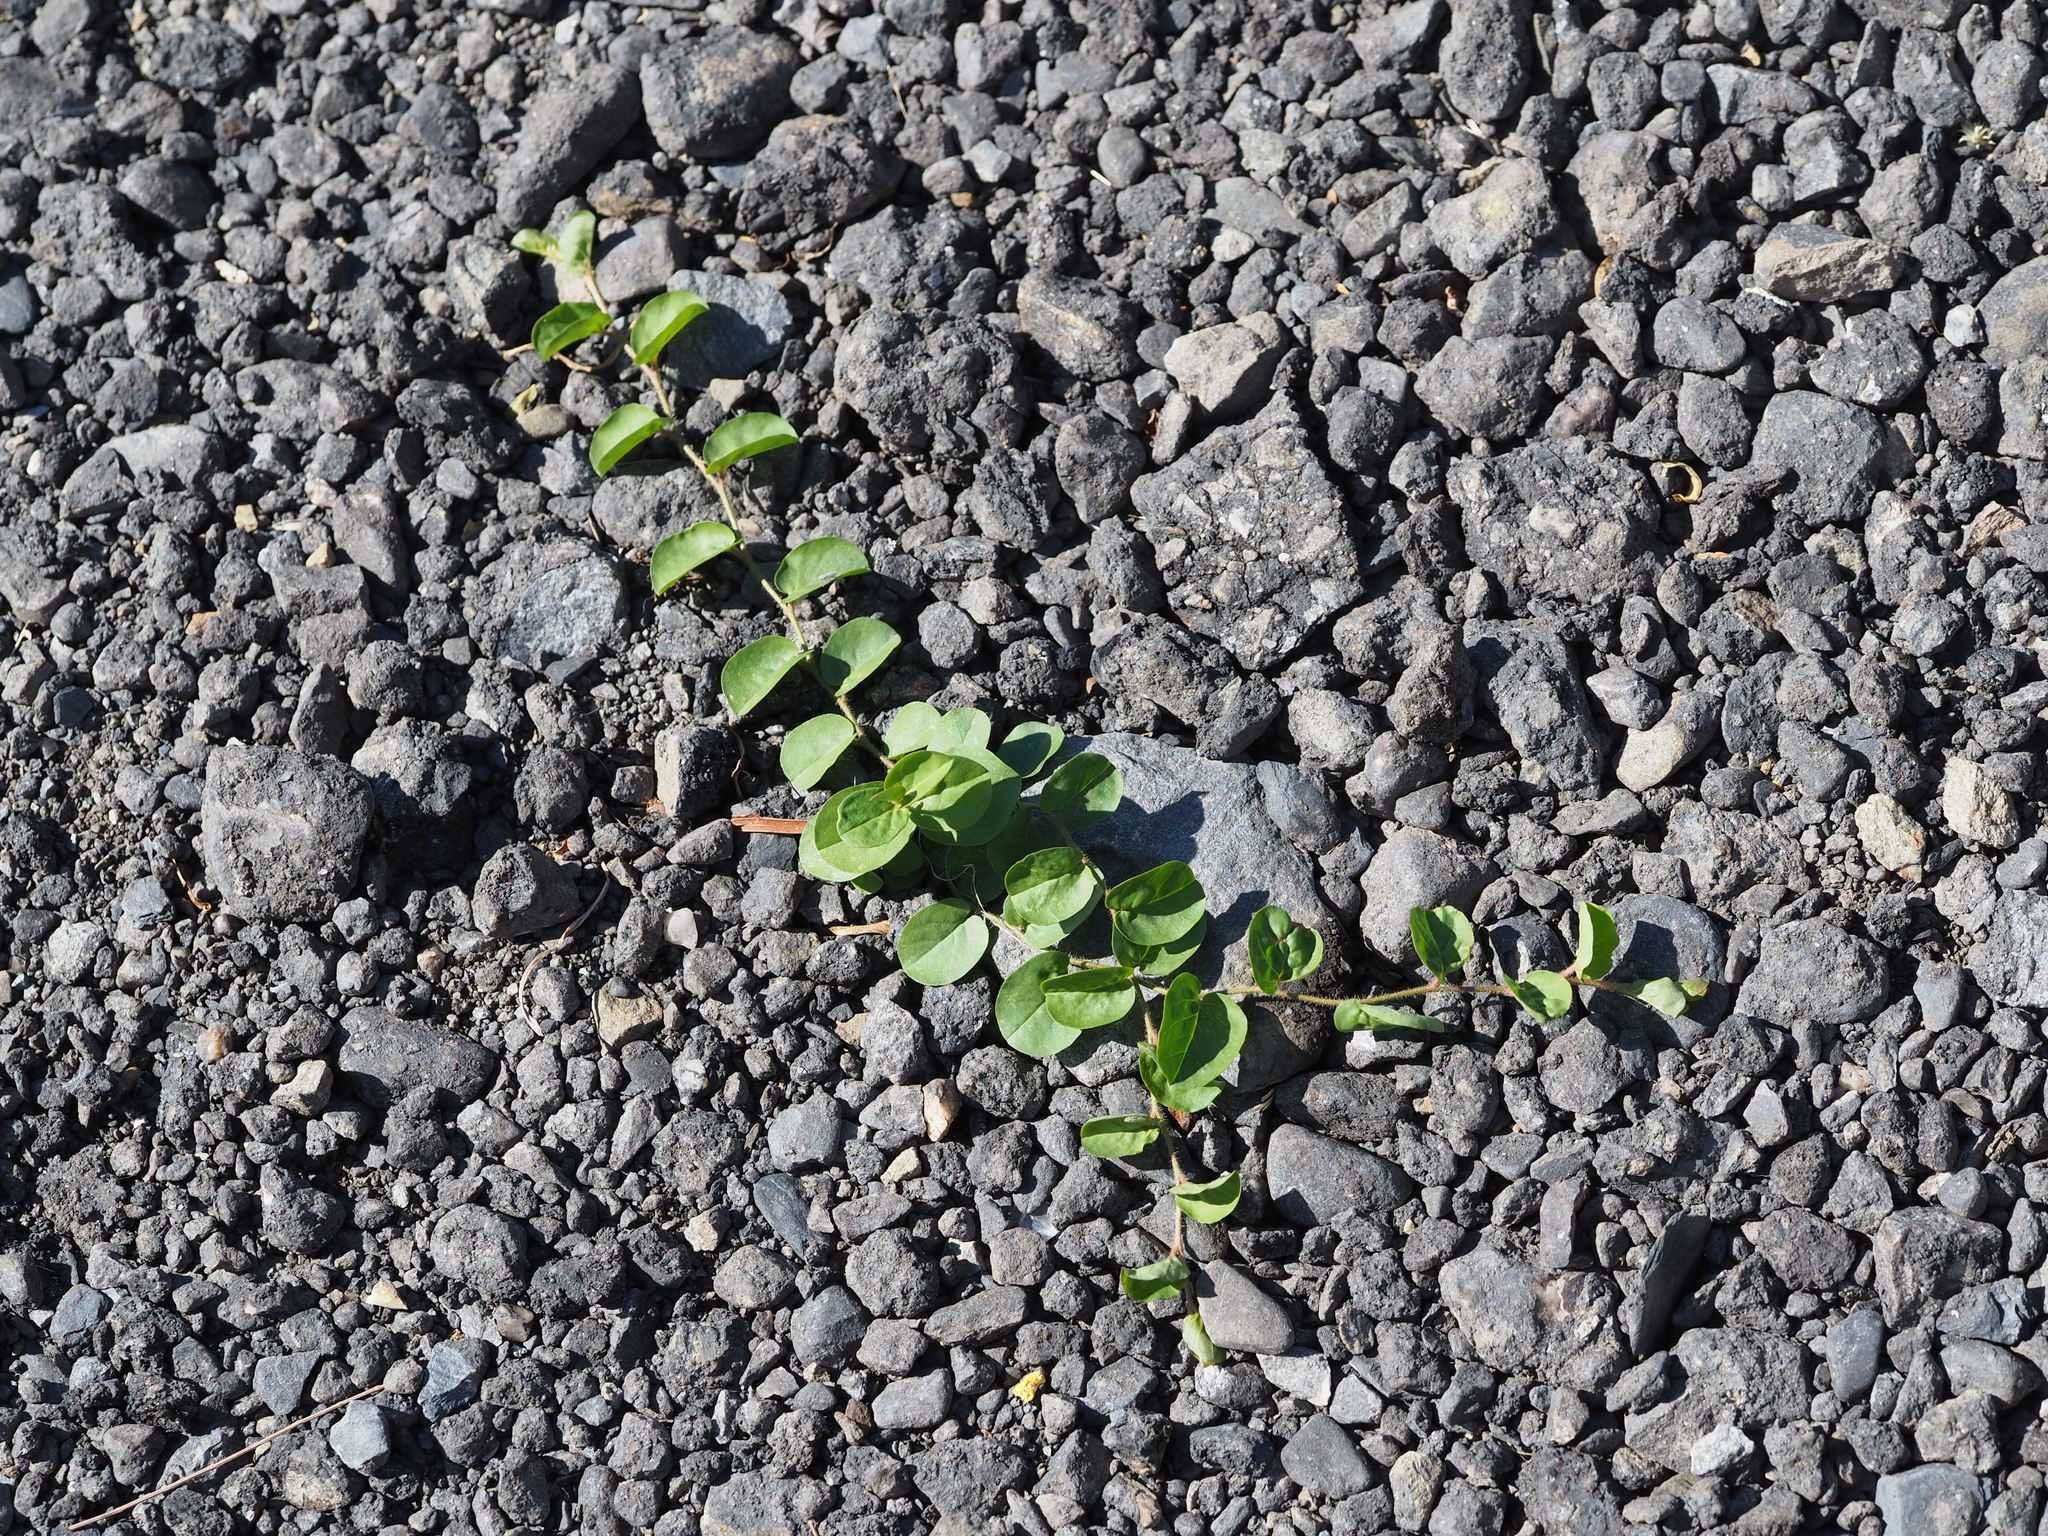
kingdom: Plantae
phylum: Tracheophyta
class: Magnoliopsida
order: Solanales
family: Convolvulaceae
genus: Evolvulus
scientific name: Evolvulus nummularius
